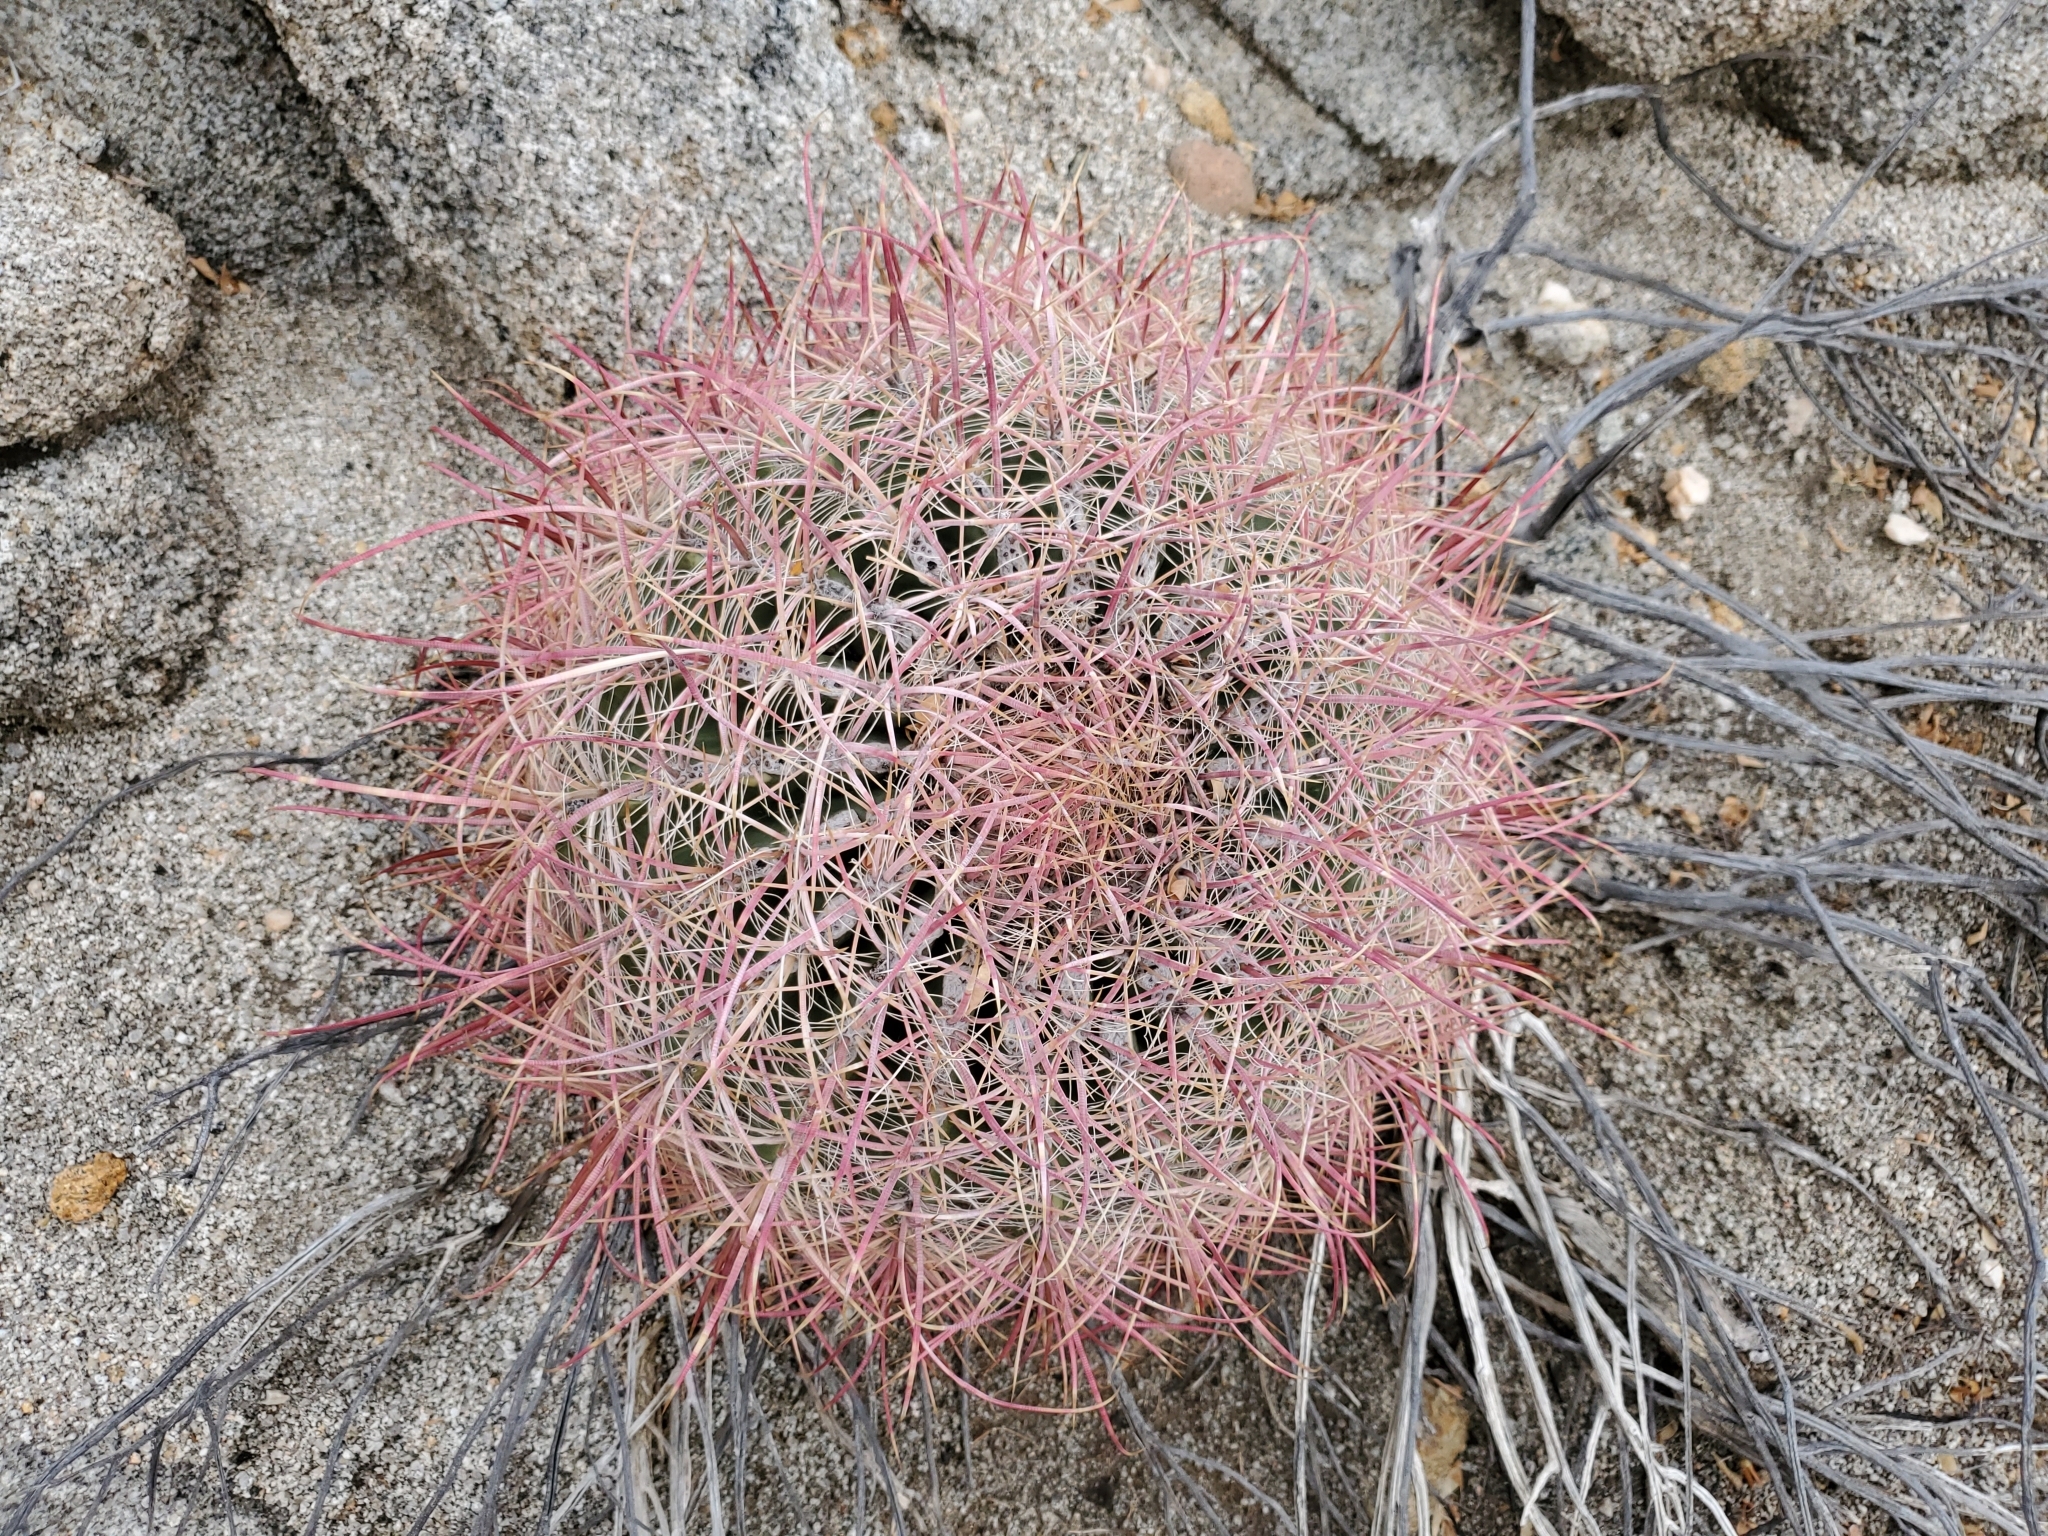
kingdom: Plantae
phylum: Tracheophyta
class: Magnoliopsida
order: Caryophyllales
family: Cactaceae
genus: Ferocactus
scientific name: Ferocactus cylindraceus
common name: California barrel cactus
